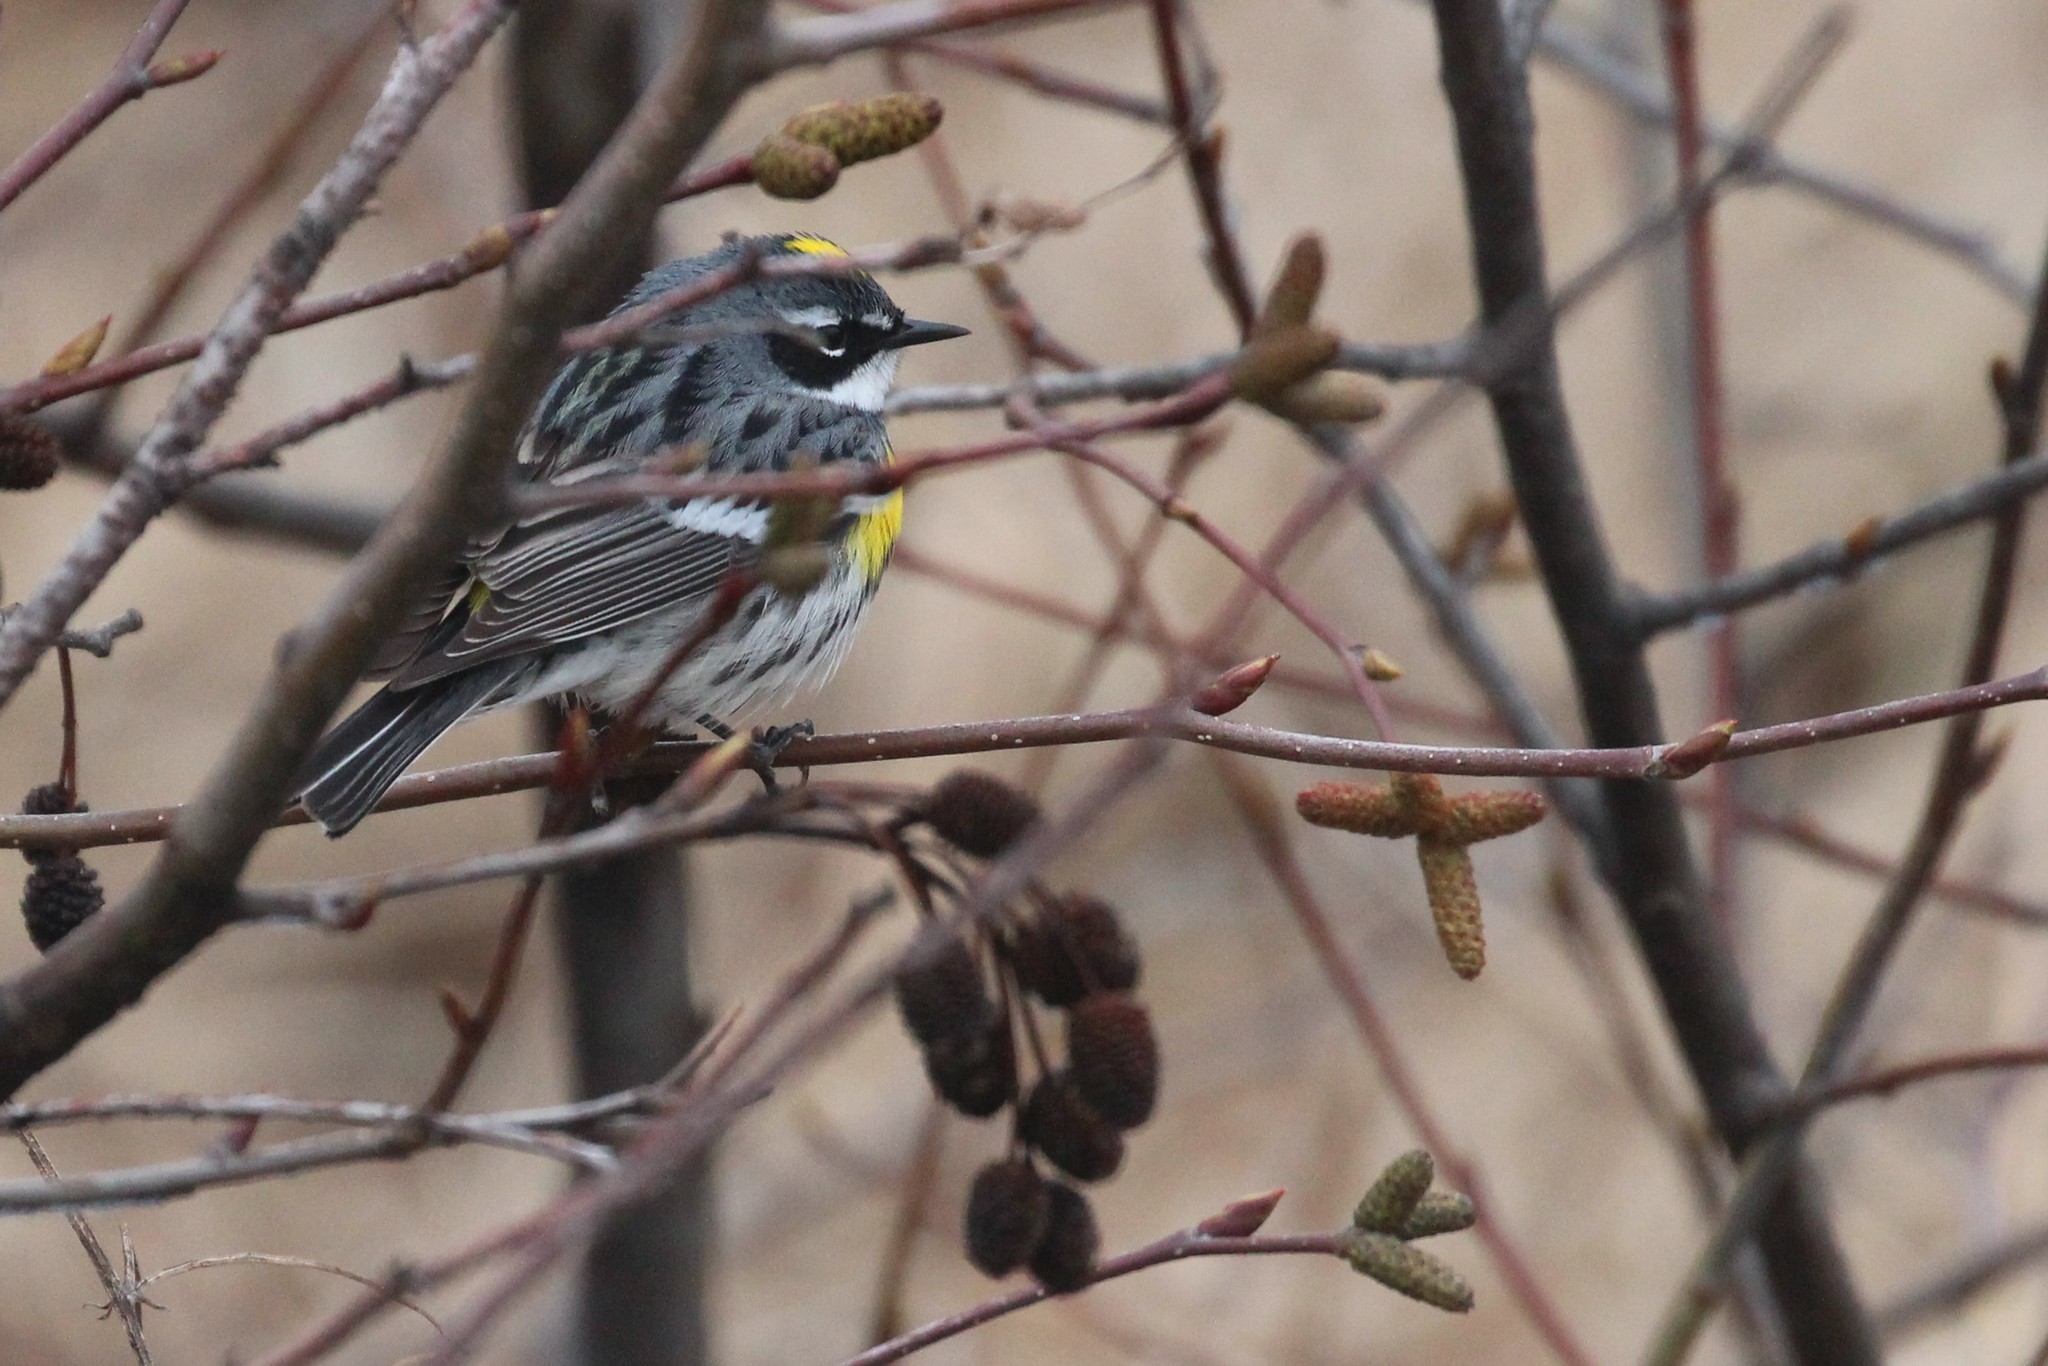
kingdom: Animalia
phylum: Chordata
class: Aves
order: Passeriformes
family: Parulidae
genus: Setophaga
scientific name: Setophaga coronata
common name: Myrtle warbler
